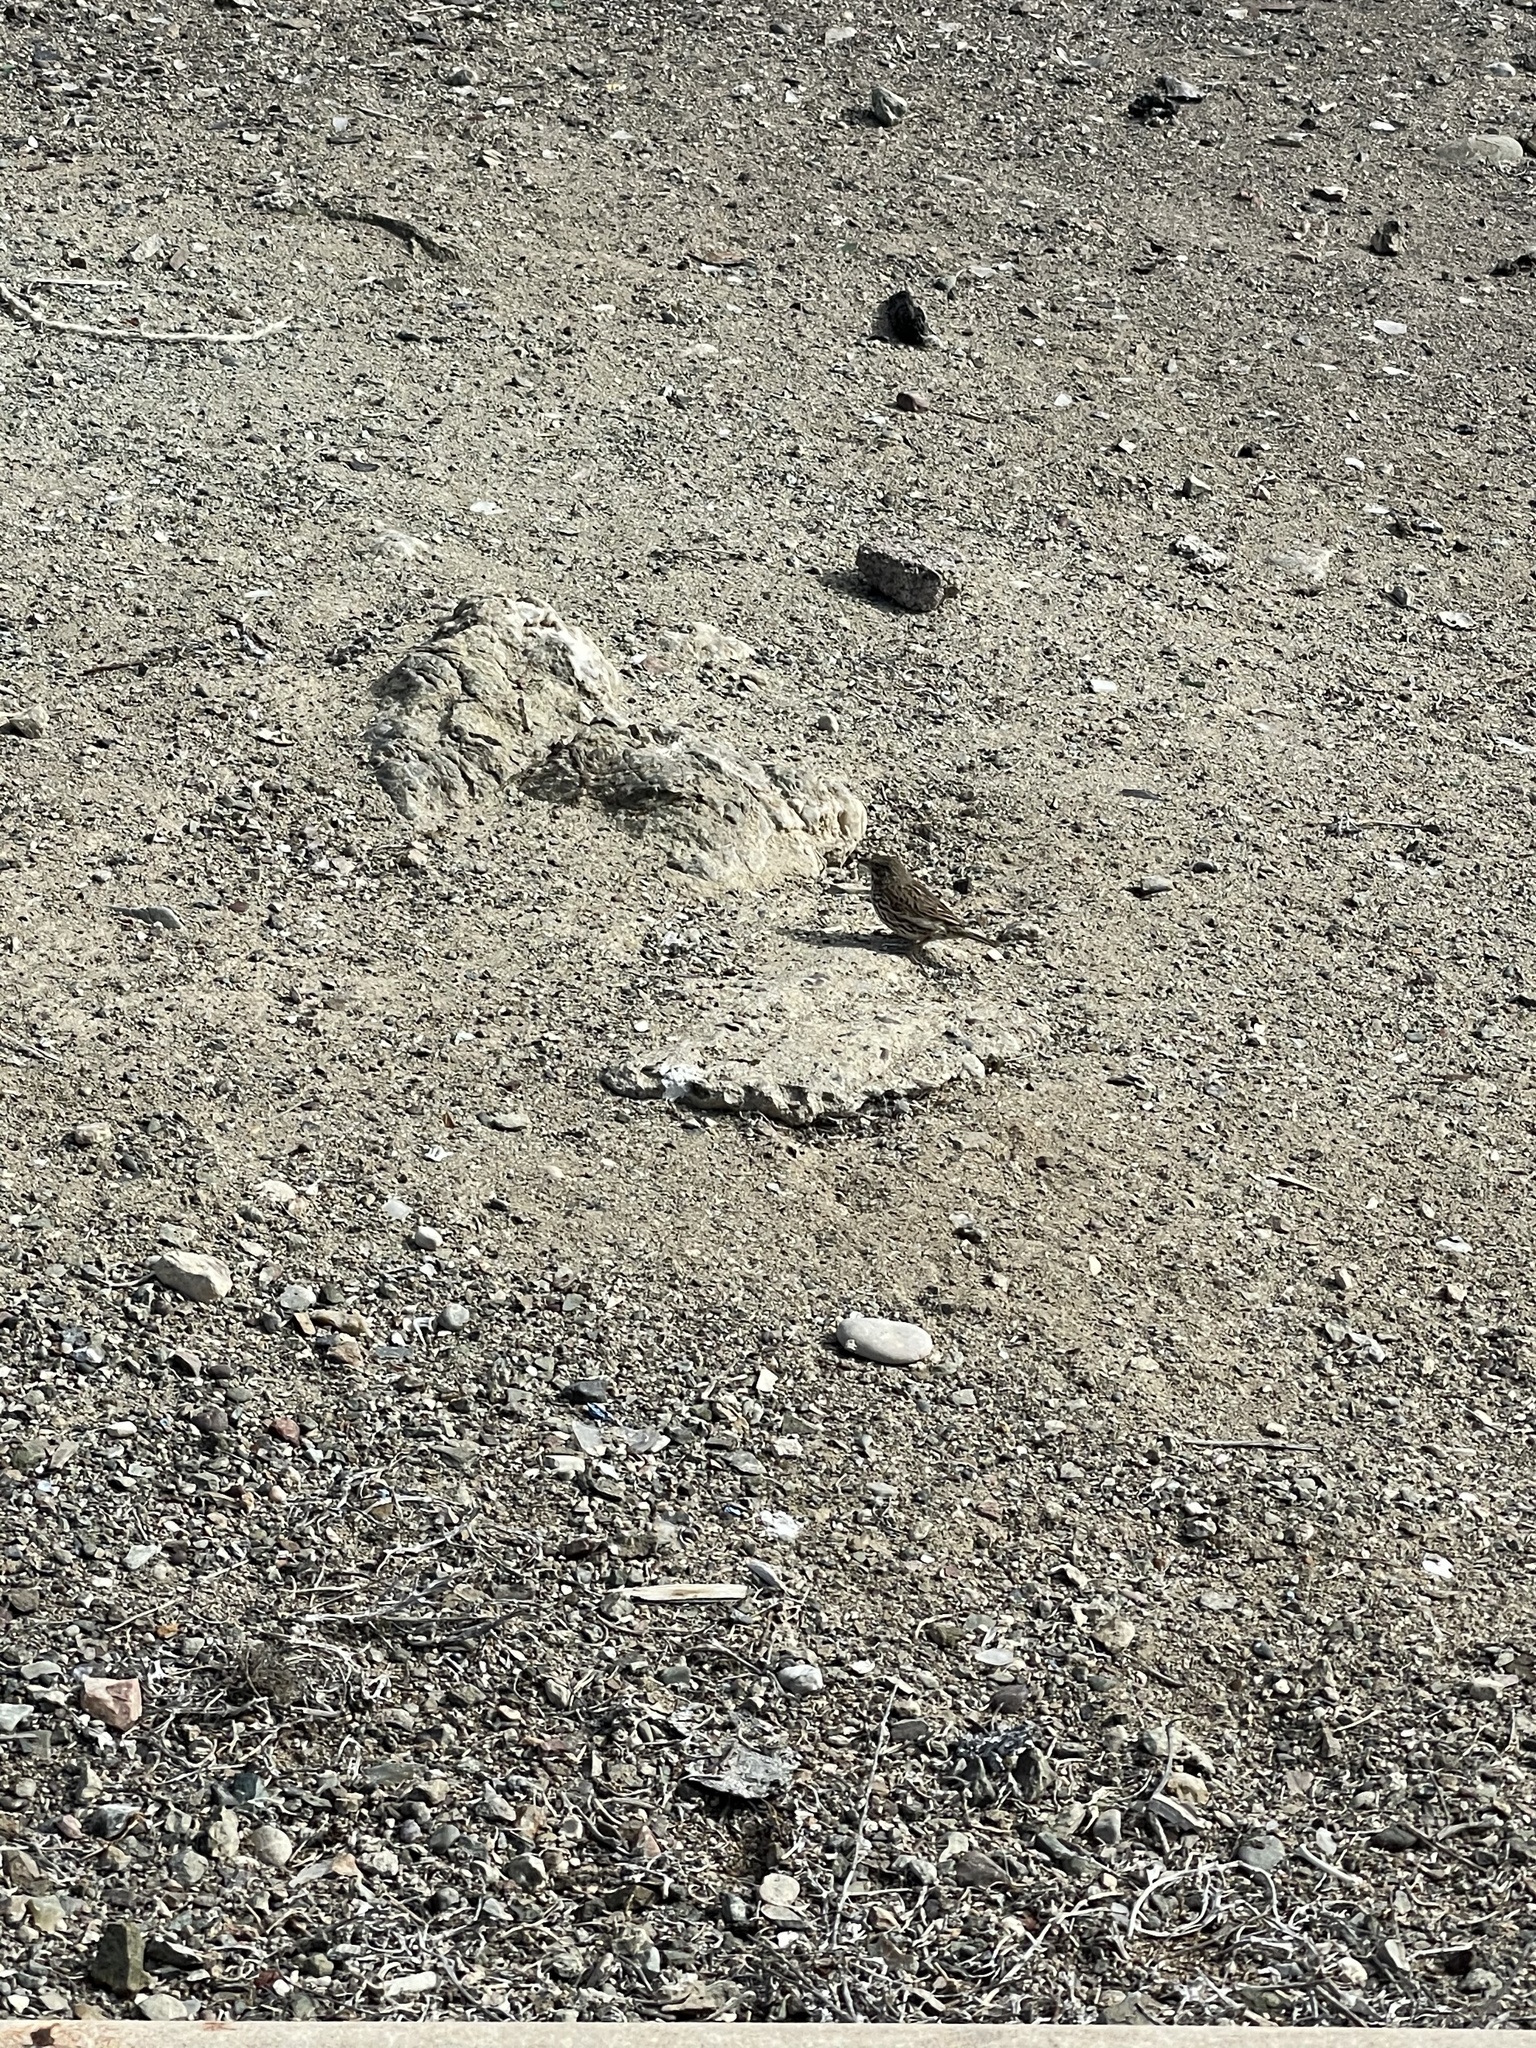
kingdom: Animalia
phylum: Chordata
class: Aves
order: Passeriformes
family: Passerellidae
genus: Passerculus
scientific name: Passerculus sandwichensis
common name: Savannah sparrow
